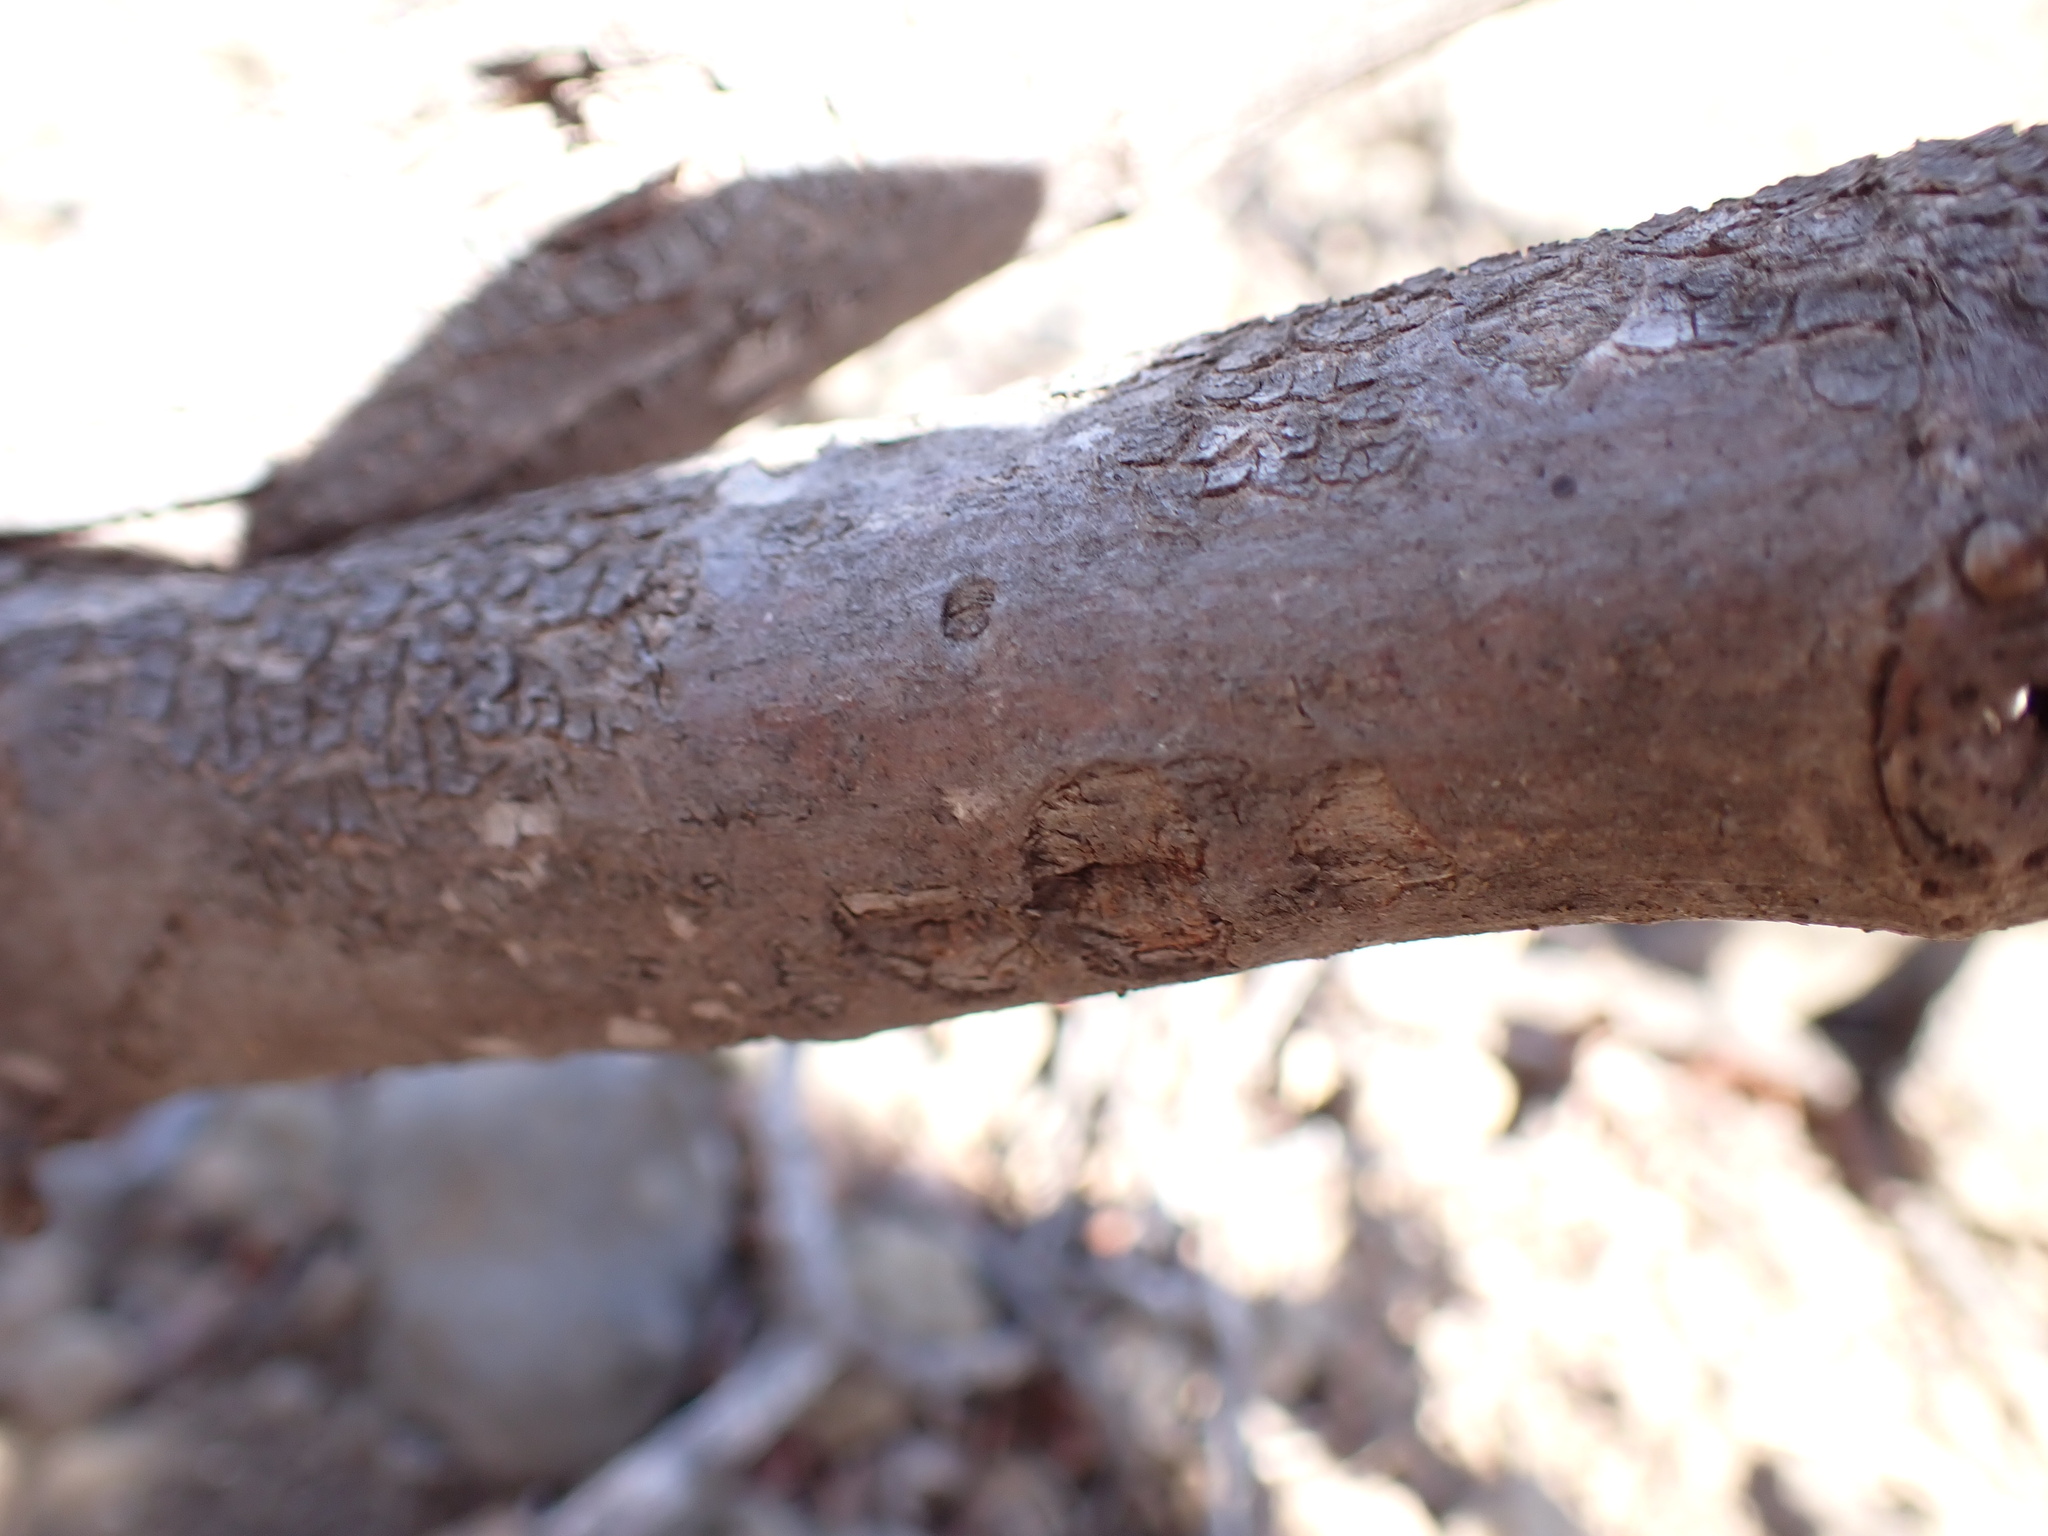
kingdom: Plantae
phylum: Tracheophyta
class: Magnoliopsida
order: Caryophyllales
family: Polygonaceae
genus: Rumex
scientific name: Rumex lunaria
